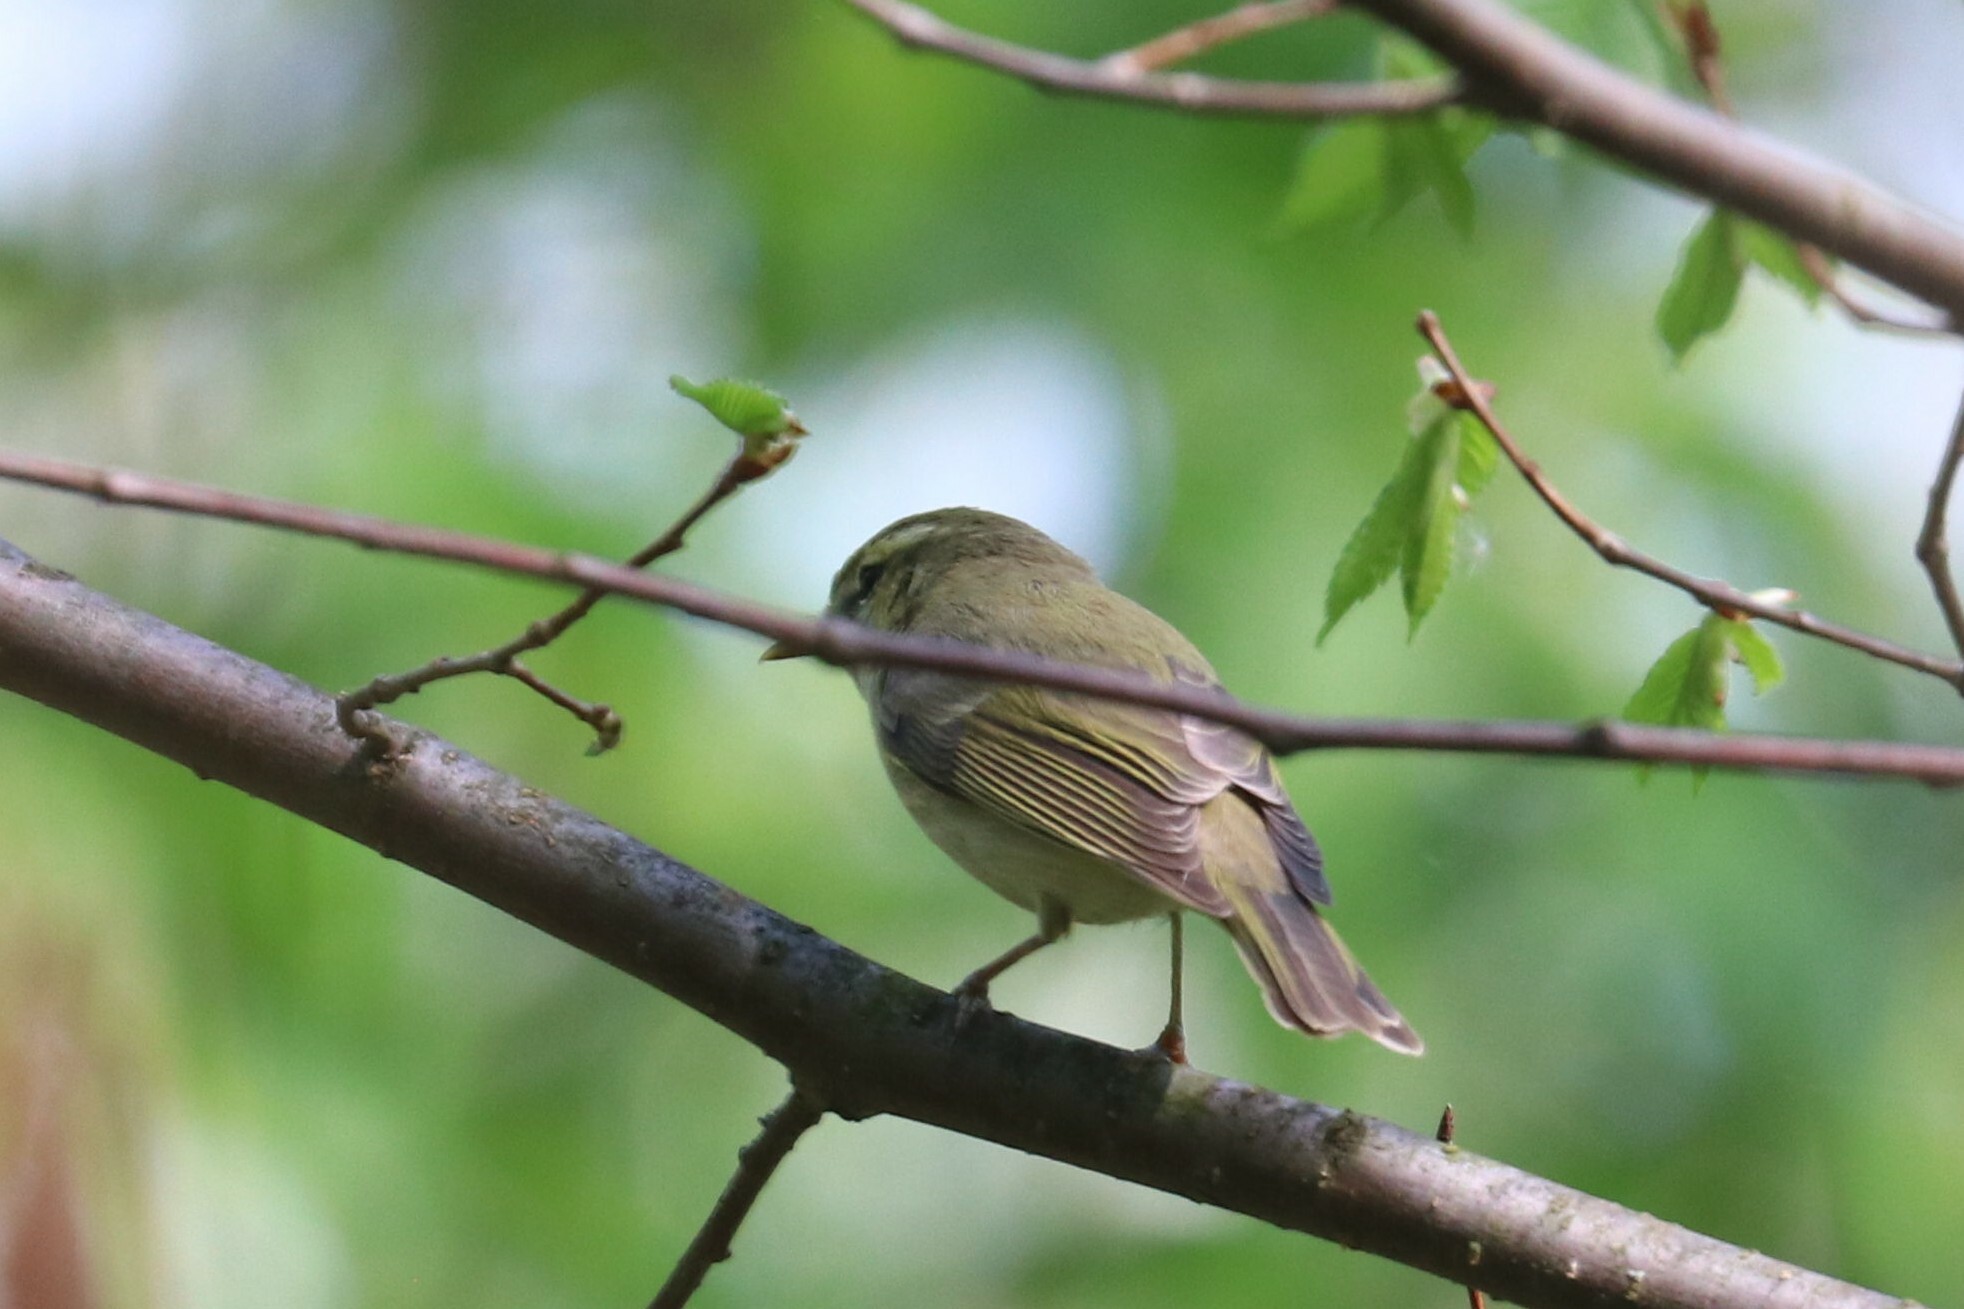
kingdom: Animalia
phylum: Chordata
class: Aves
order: Passeriformes
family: Phylloscopidae
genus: Phylloscopus
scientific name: Phylloscopus trochiloides
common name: Greenish warbler
